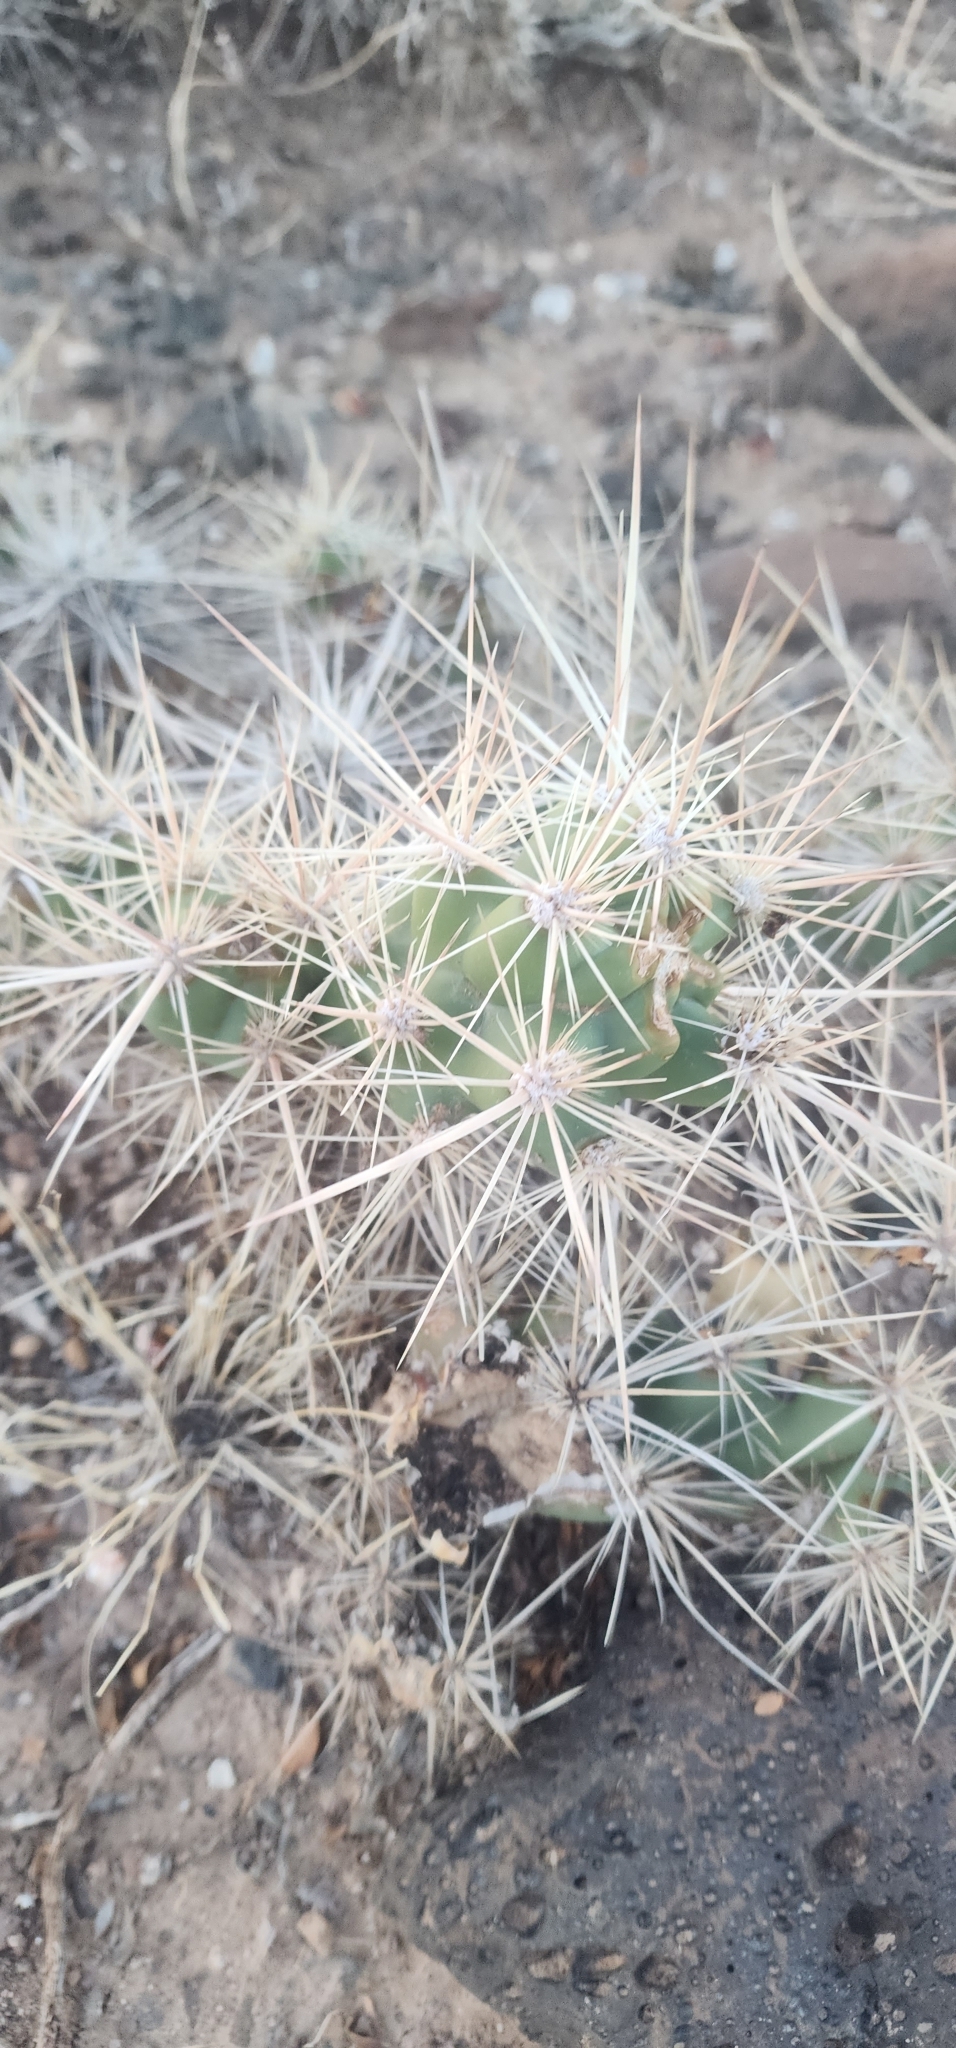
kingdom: Plantae
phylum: Tracheophyta
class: Magnoliopsida
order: Caryophyllales
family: Cactaceae
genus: Grusonia
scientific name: Grusonia emoryi
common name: Stanly's club cholla
